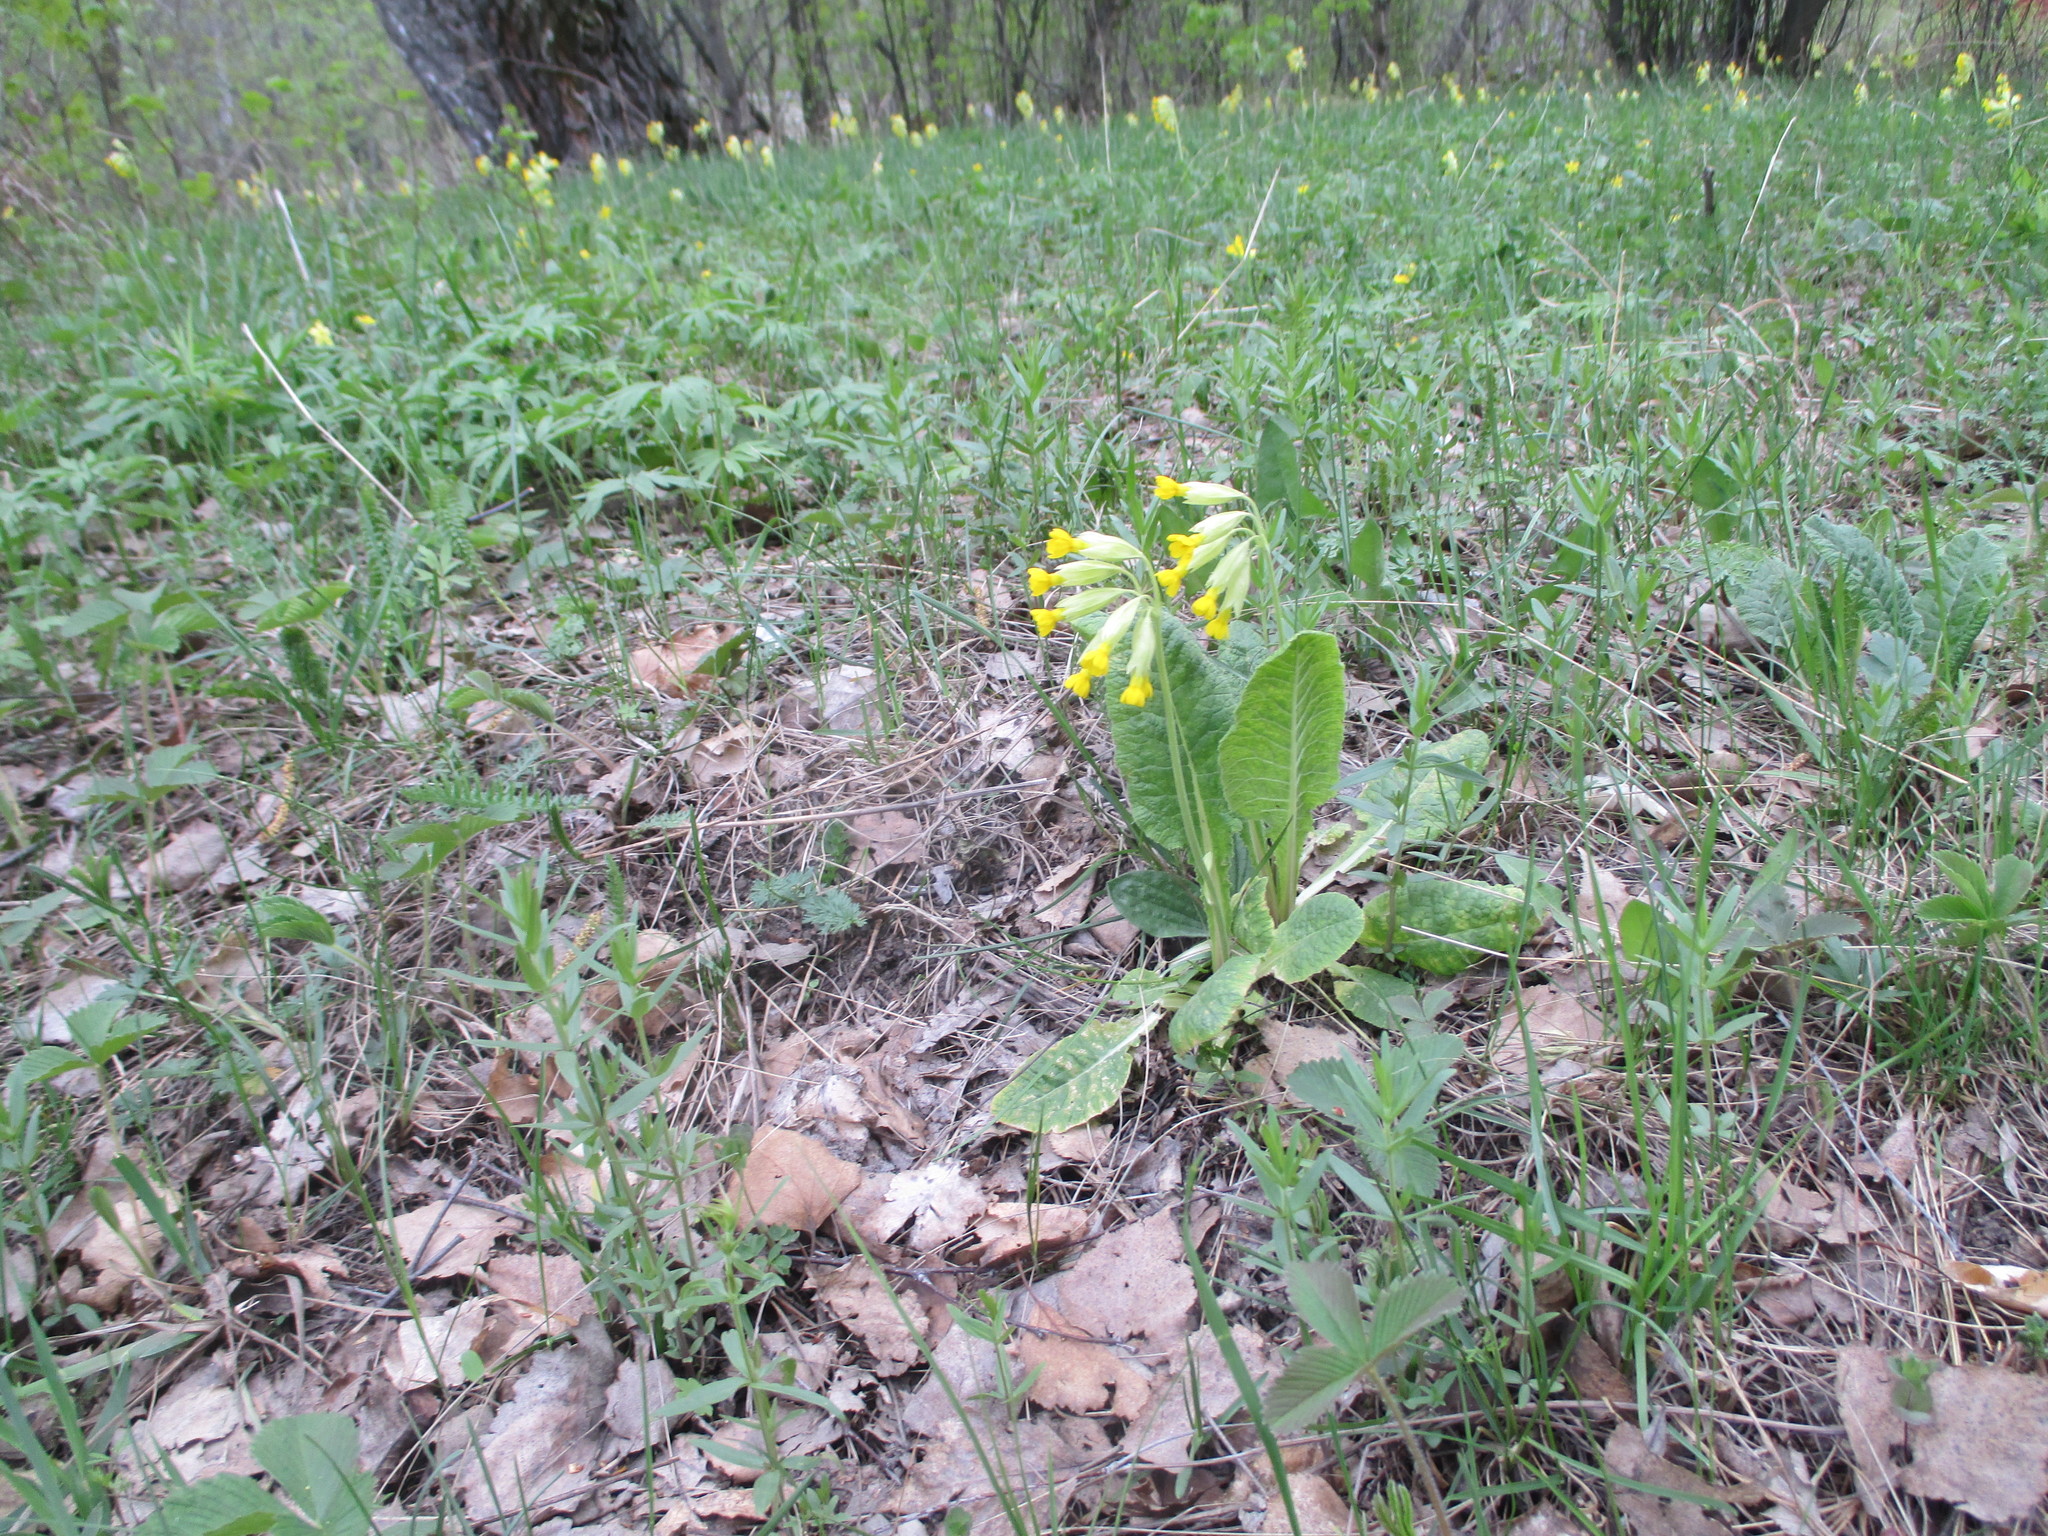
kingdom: Plantae
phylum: Tracheophyta
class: Magnoliopsida
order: Ericales
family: Primulaceae
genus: Primula
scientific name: Primula veris
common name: Cowslip
